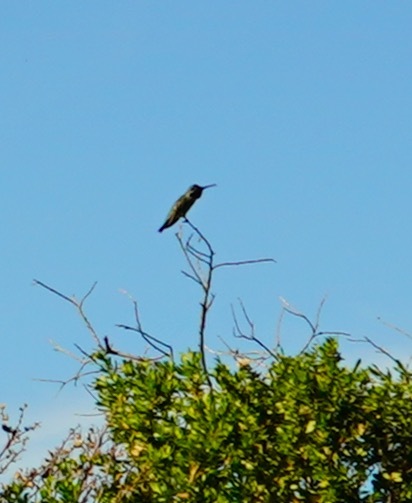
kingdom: Animalia
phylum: Chordata
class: Aves
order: Apodiformes
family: Trochilidae
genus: Calypte
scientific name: Calypte anna
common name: Anna's hummingbird
